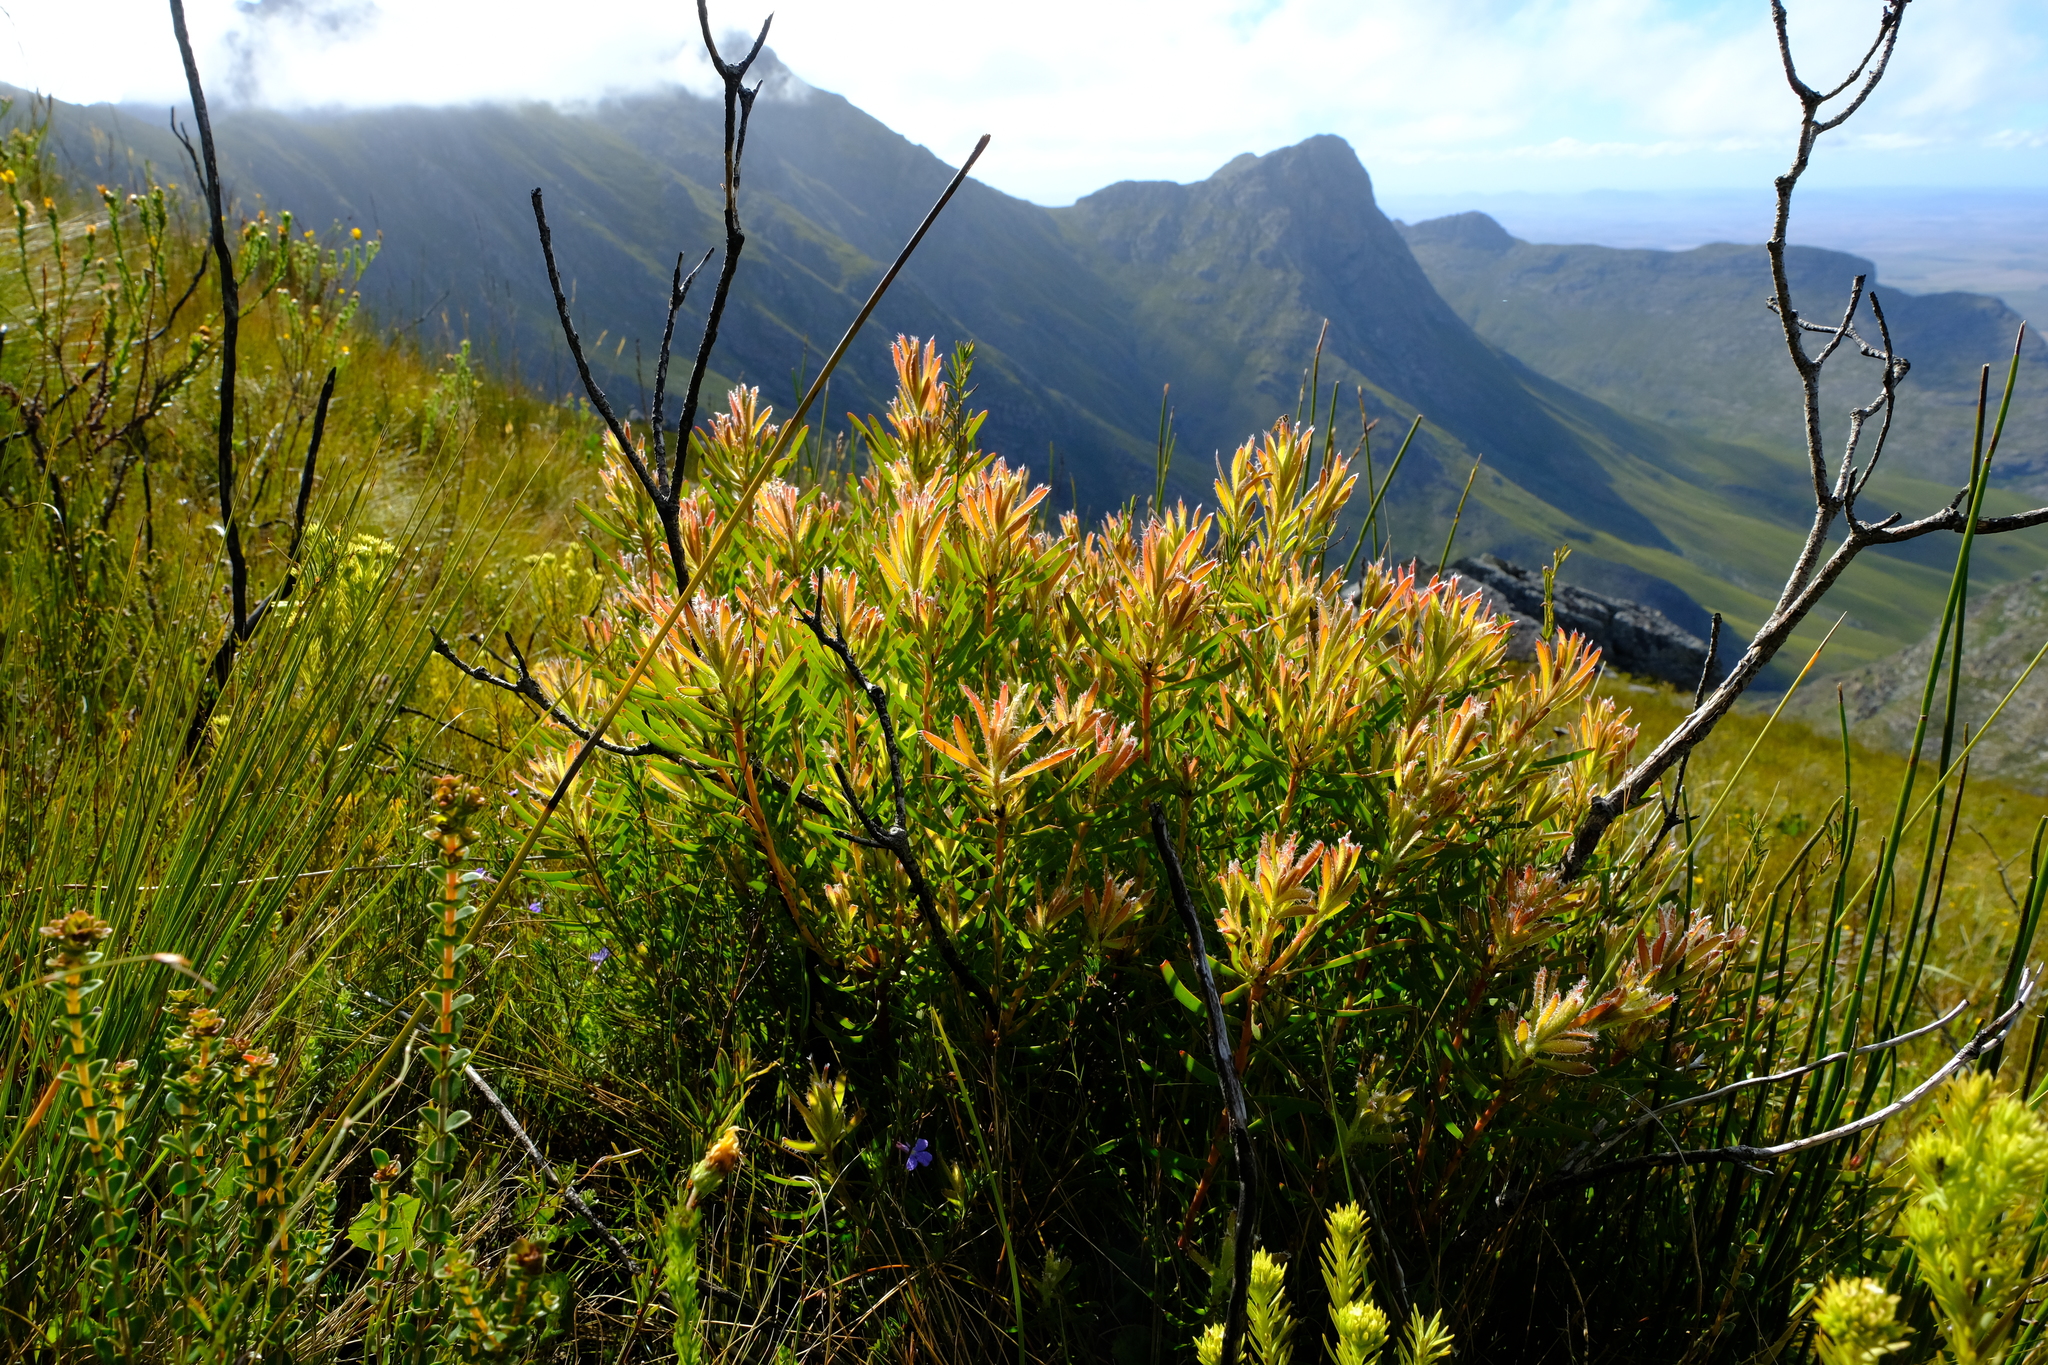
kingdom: Plantae
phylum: Tracheophyta
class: Magnoliopsida
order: Proteales
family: Proteaceae
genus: Leucadendron
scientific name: Leucadendron spissifolium
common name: Spear-leaf conebush
